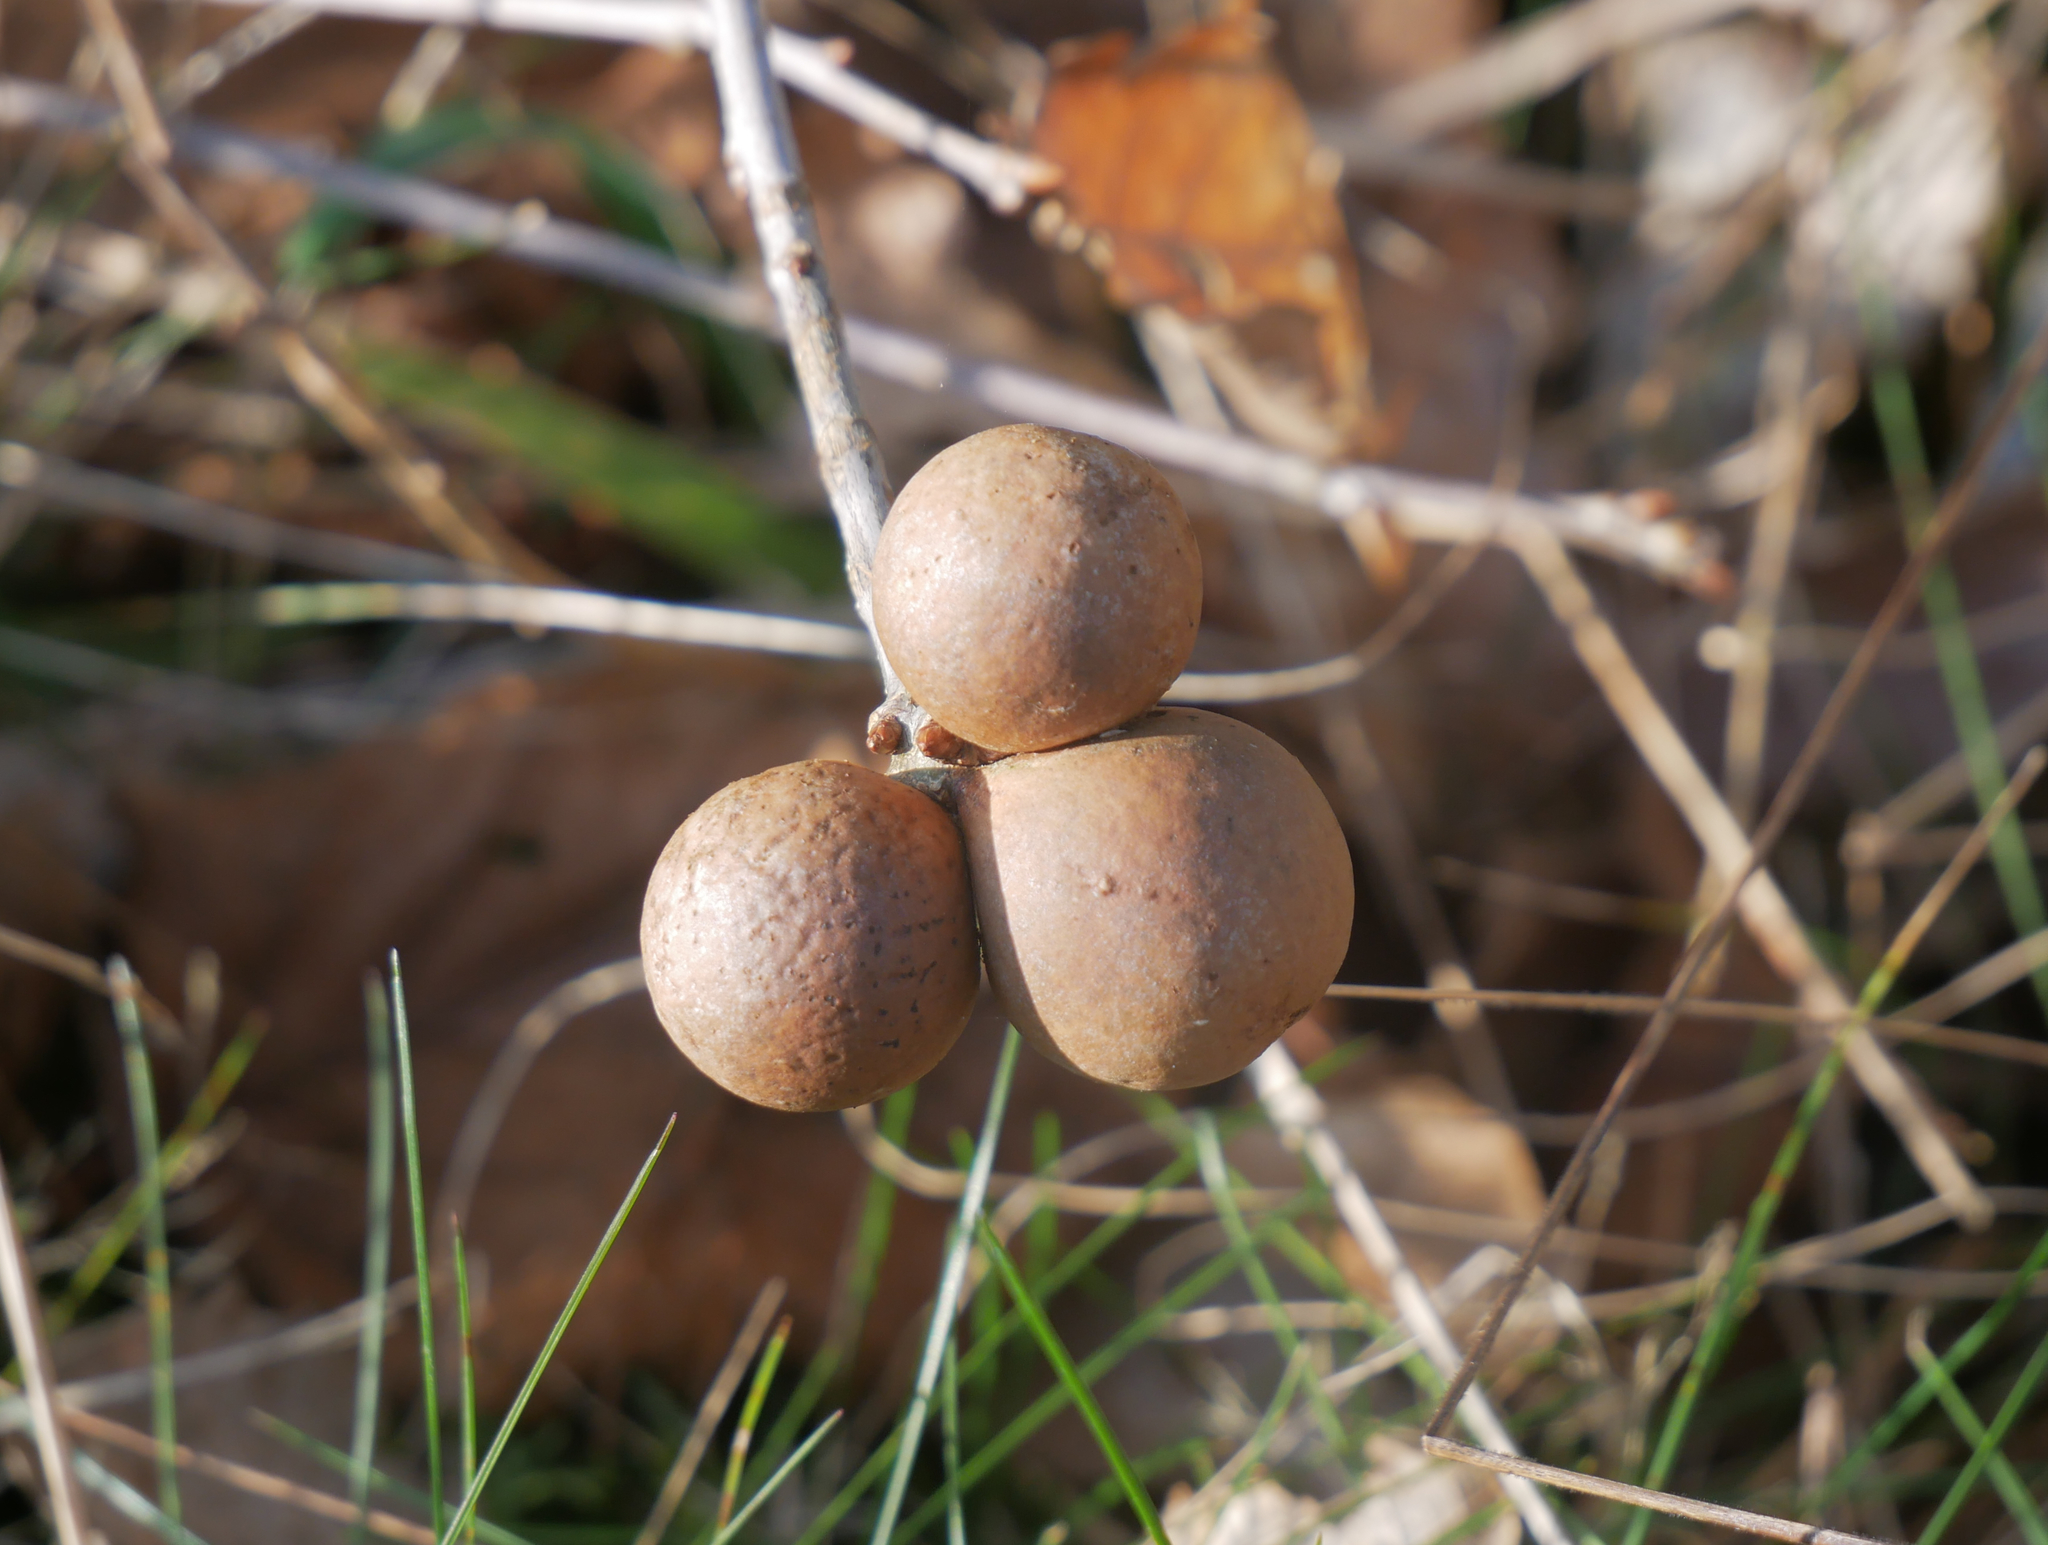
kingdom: Animalia
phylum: Arthropoda
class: Insecta
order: Hymenoptera
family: Cynipidae
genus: Andricus
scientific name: Andricus kollari
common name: Marble gall
